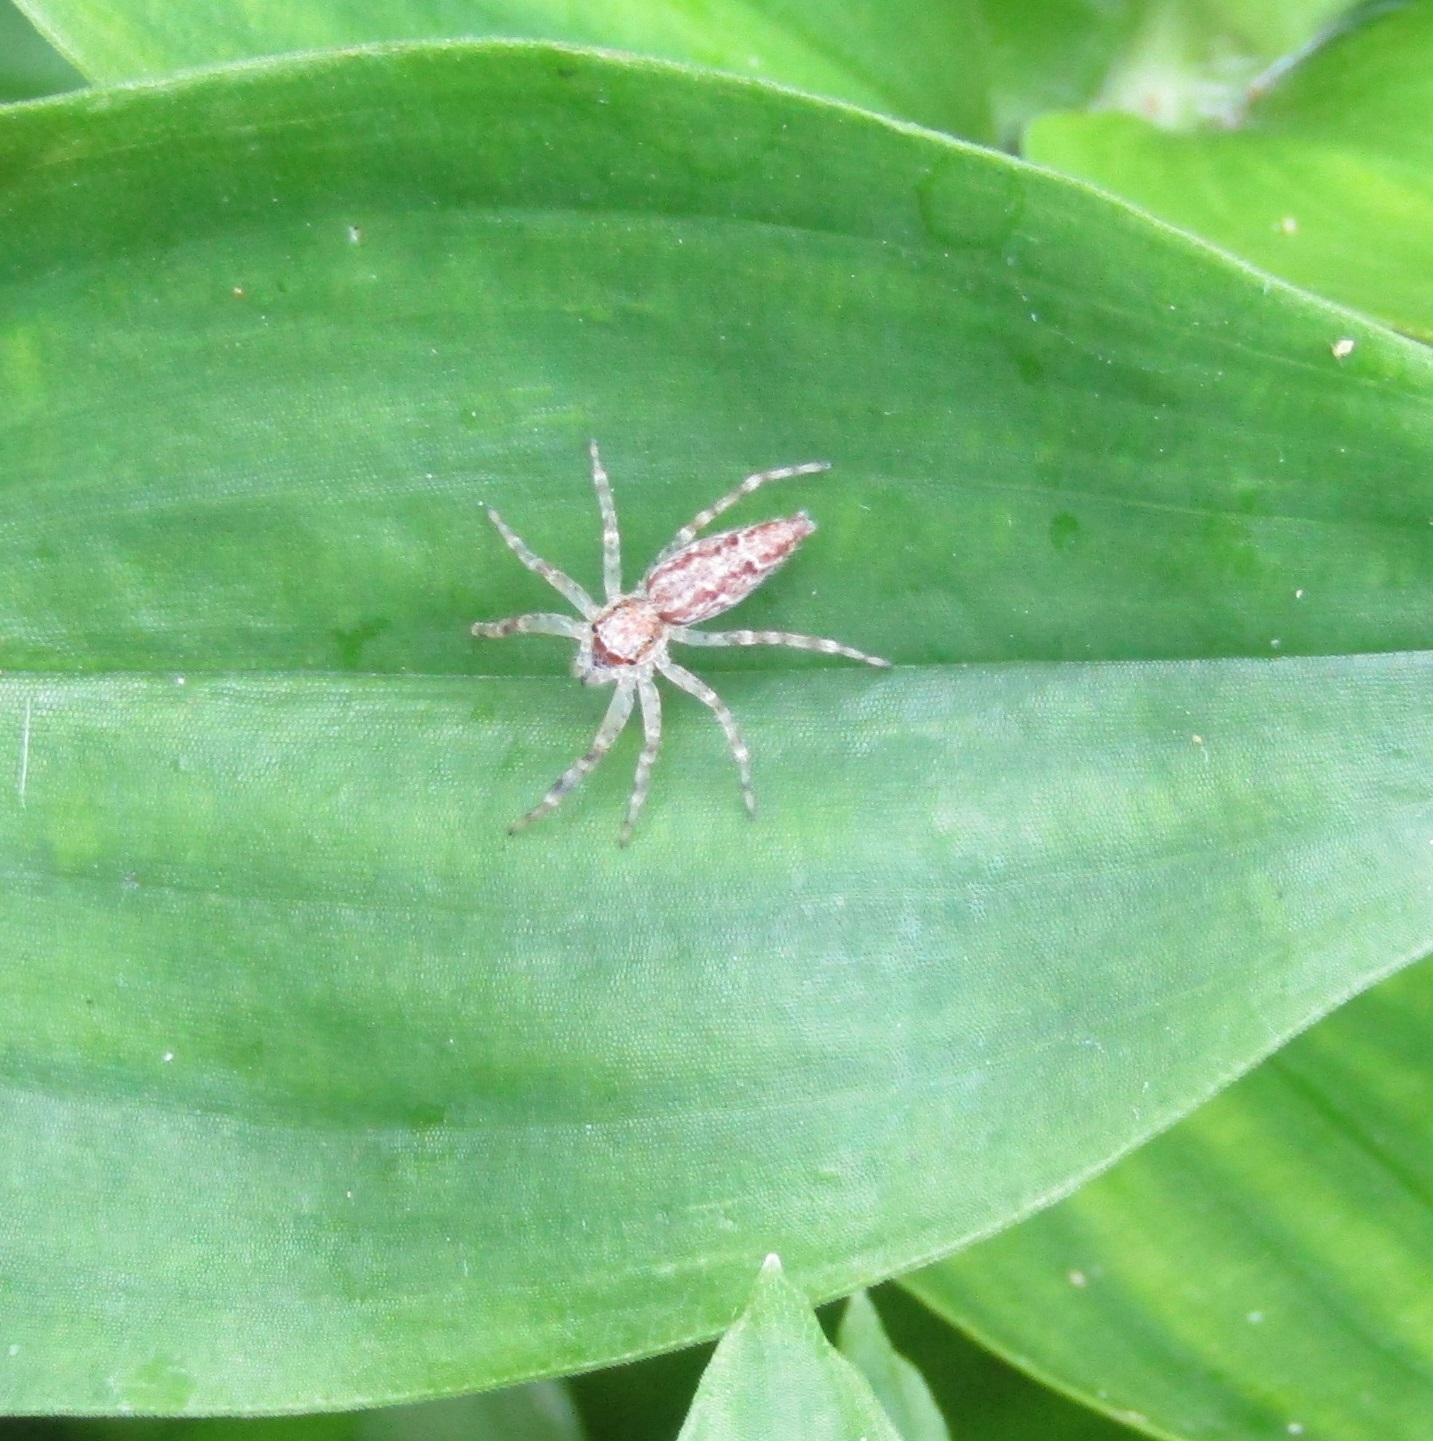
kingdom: Animalia
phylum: Arthropoda
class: Arachnida
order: Araneae
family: Salticidae
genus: Helpis
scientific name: Helpis minitabunda
